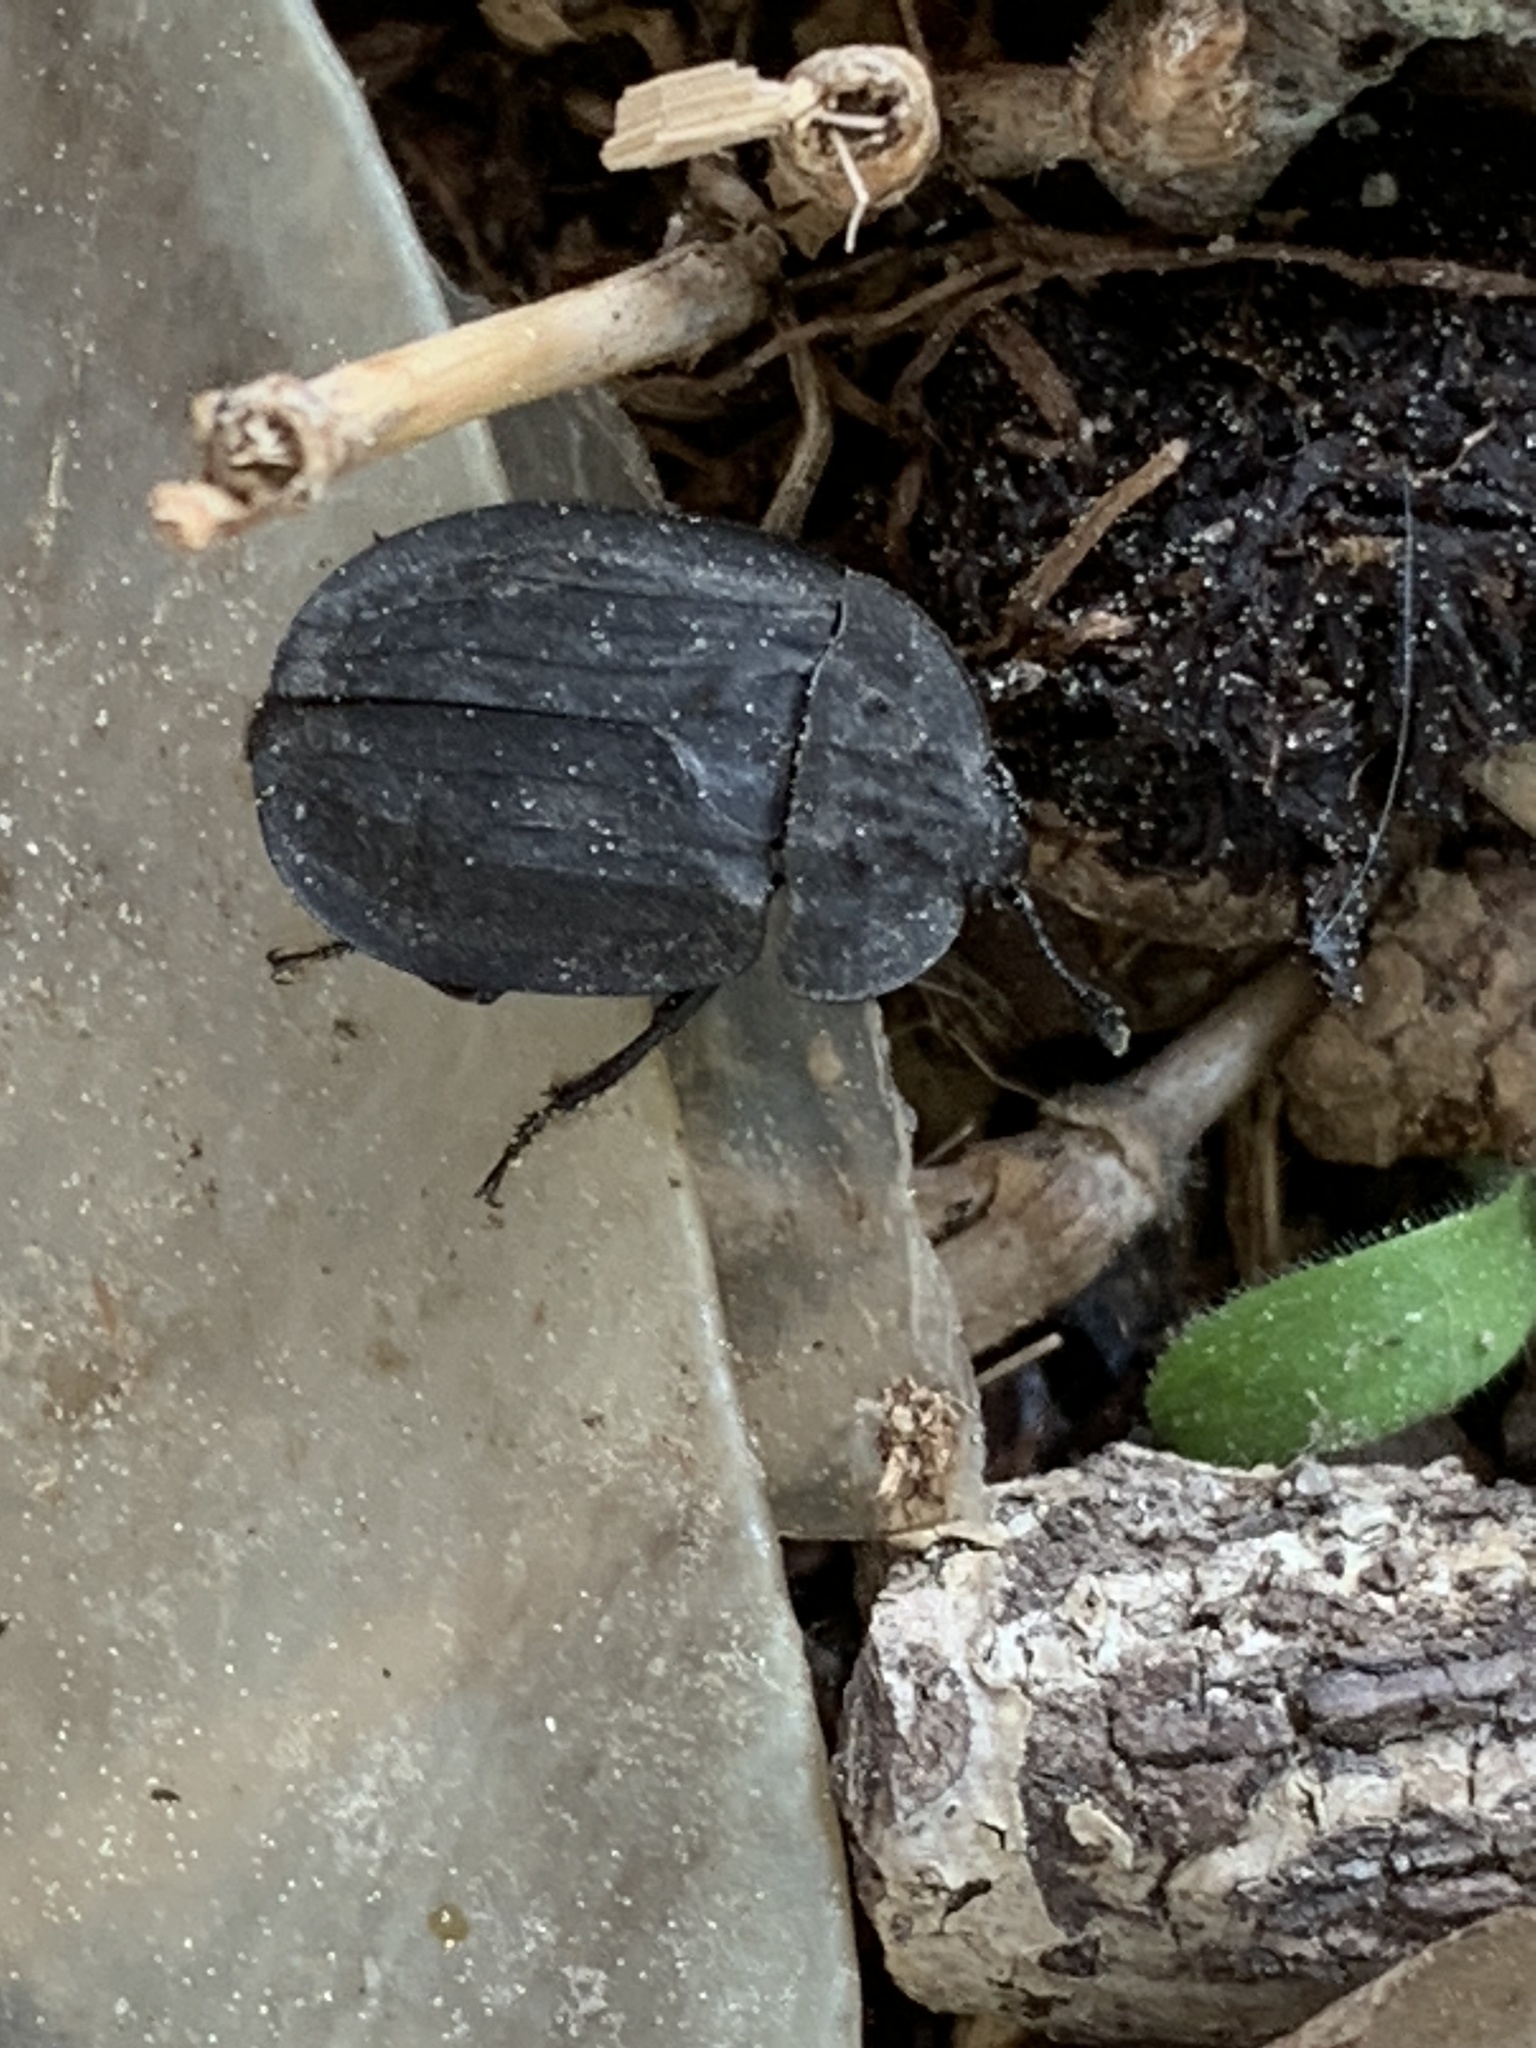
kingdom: Animalia
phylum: Arthropoda
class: Insecta
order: Coleoptera
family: Staphylinidae
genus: Oiceoptoma
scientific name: Oiceoptoma inaequale
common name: Ridged carrion beetle
